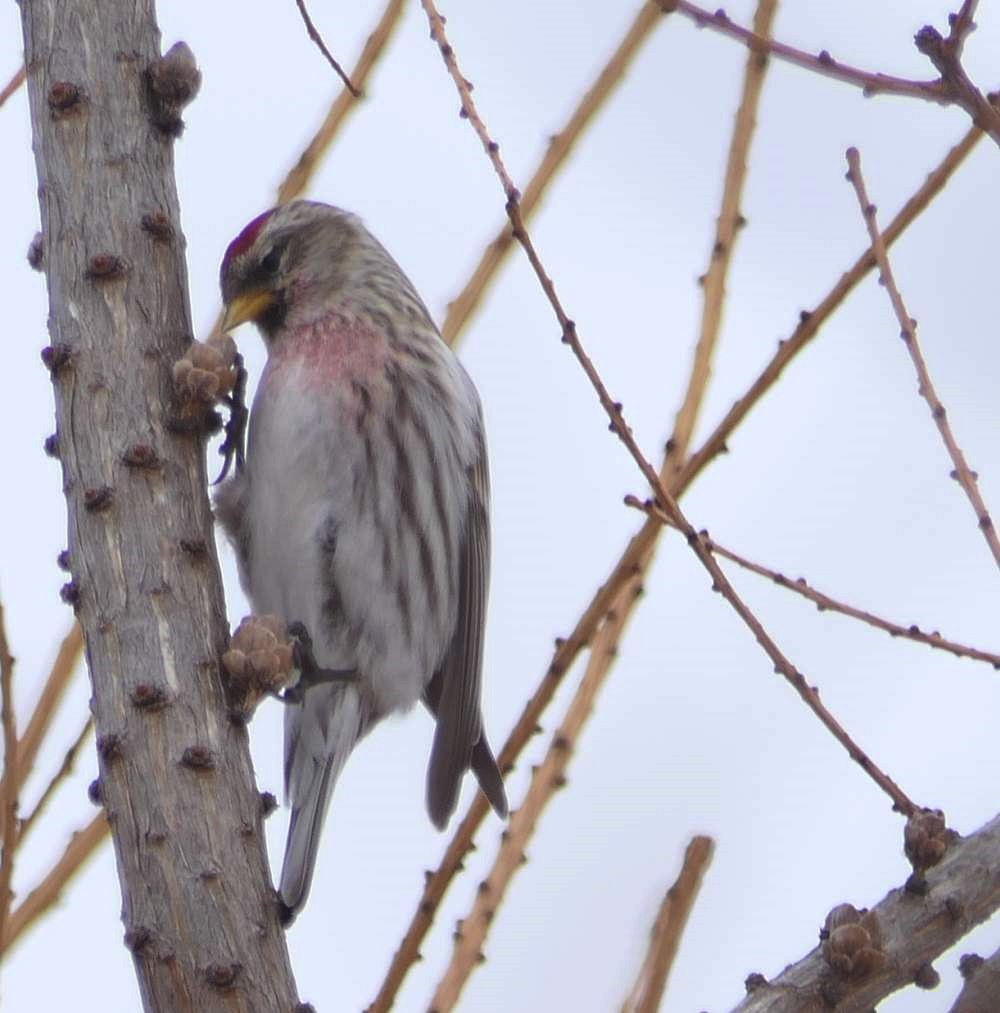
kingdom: Animalia
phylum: Chordata
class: Aves
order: Passeriformes
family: Fringillidae
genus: Acanthis
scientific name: Acanthis flammea
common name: Common redpoll
